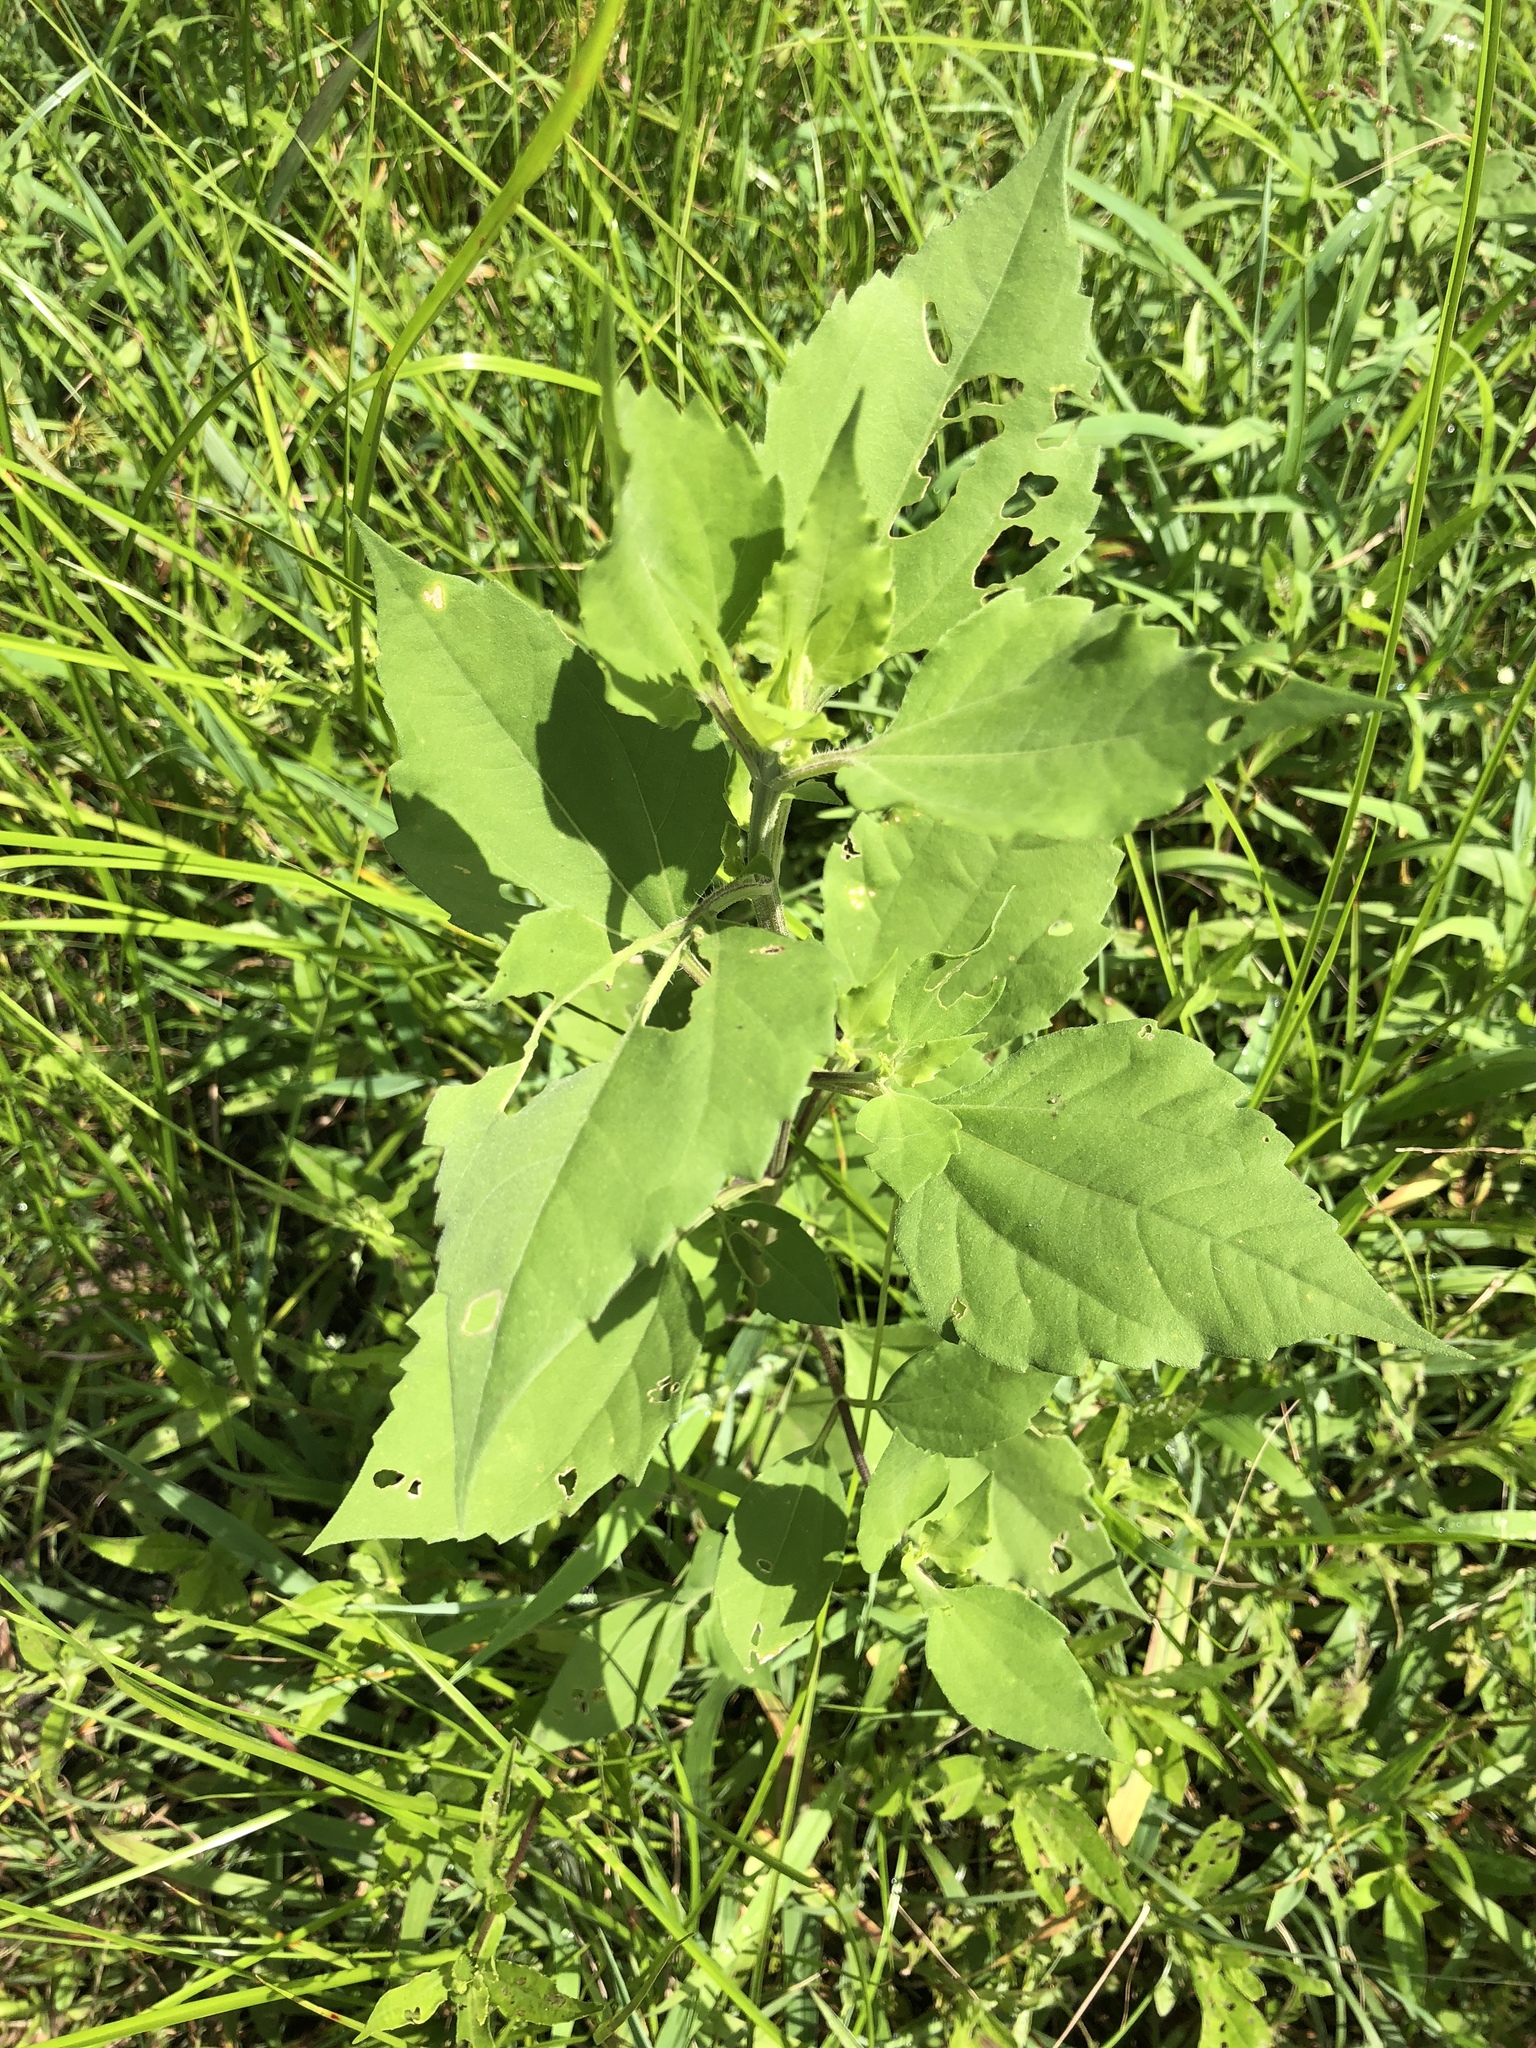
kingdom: Plantae
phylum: Tracheophyta
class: Magnoliopsida
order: Asterales
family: Asteraceae
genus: Iva
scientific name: Iva annua
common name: Marsh-elder
